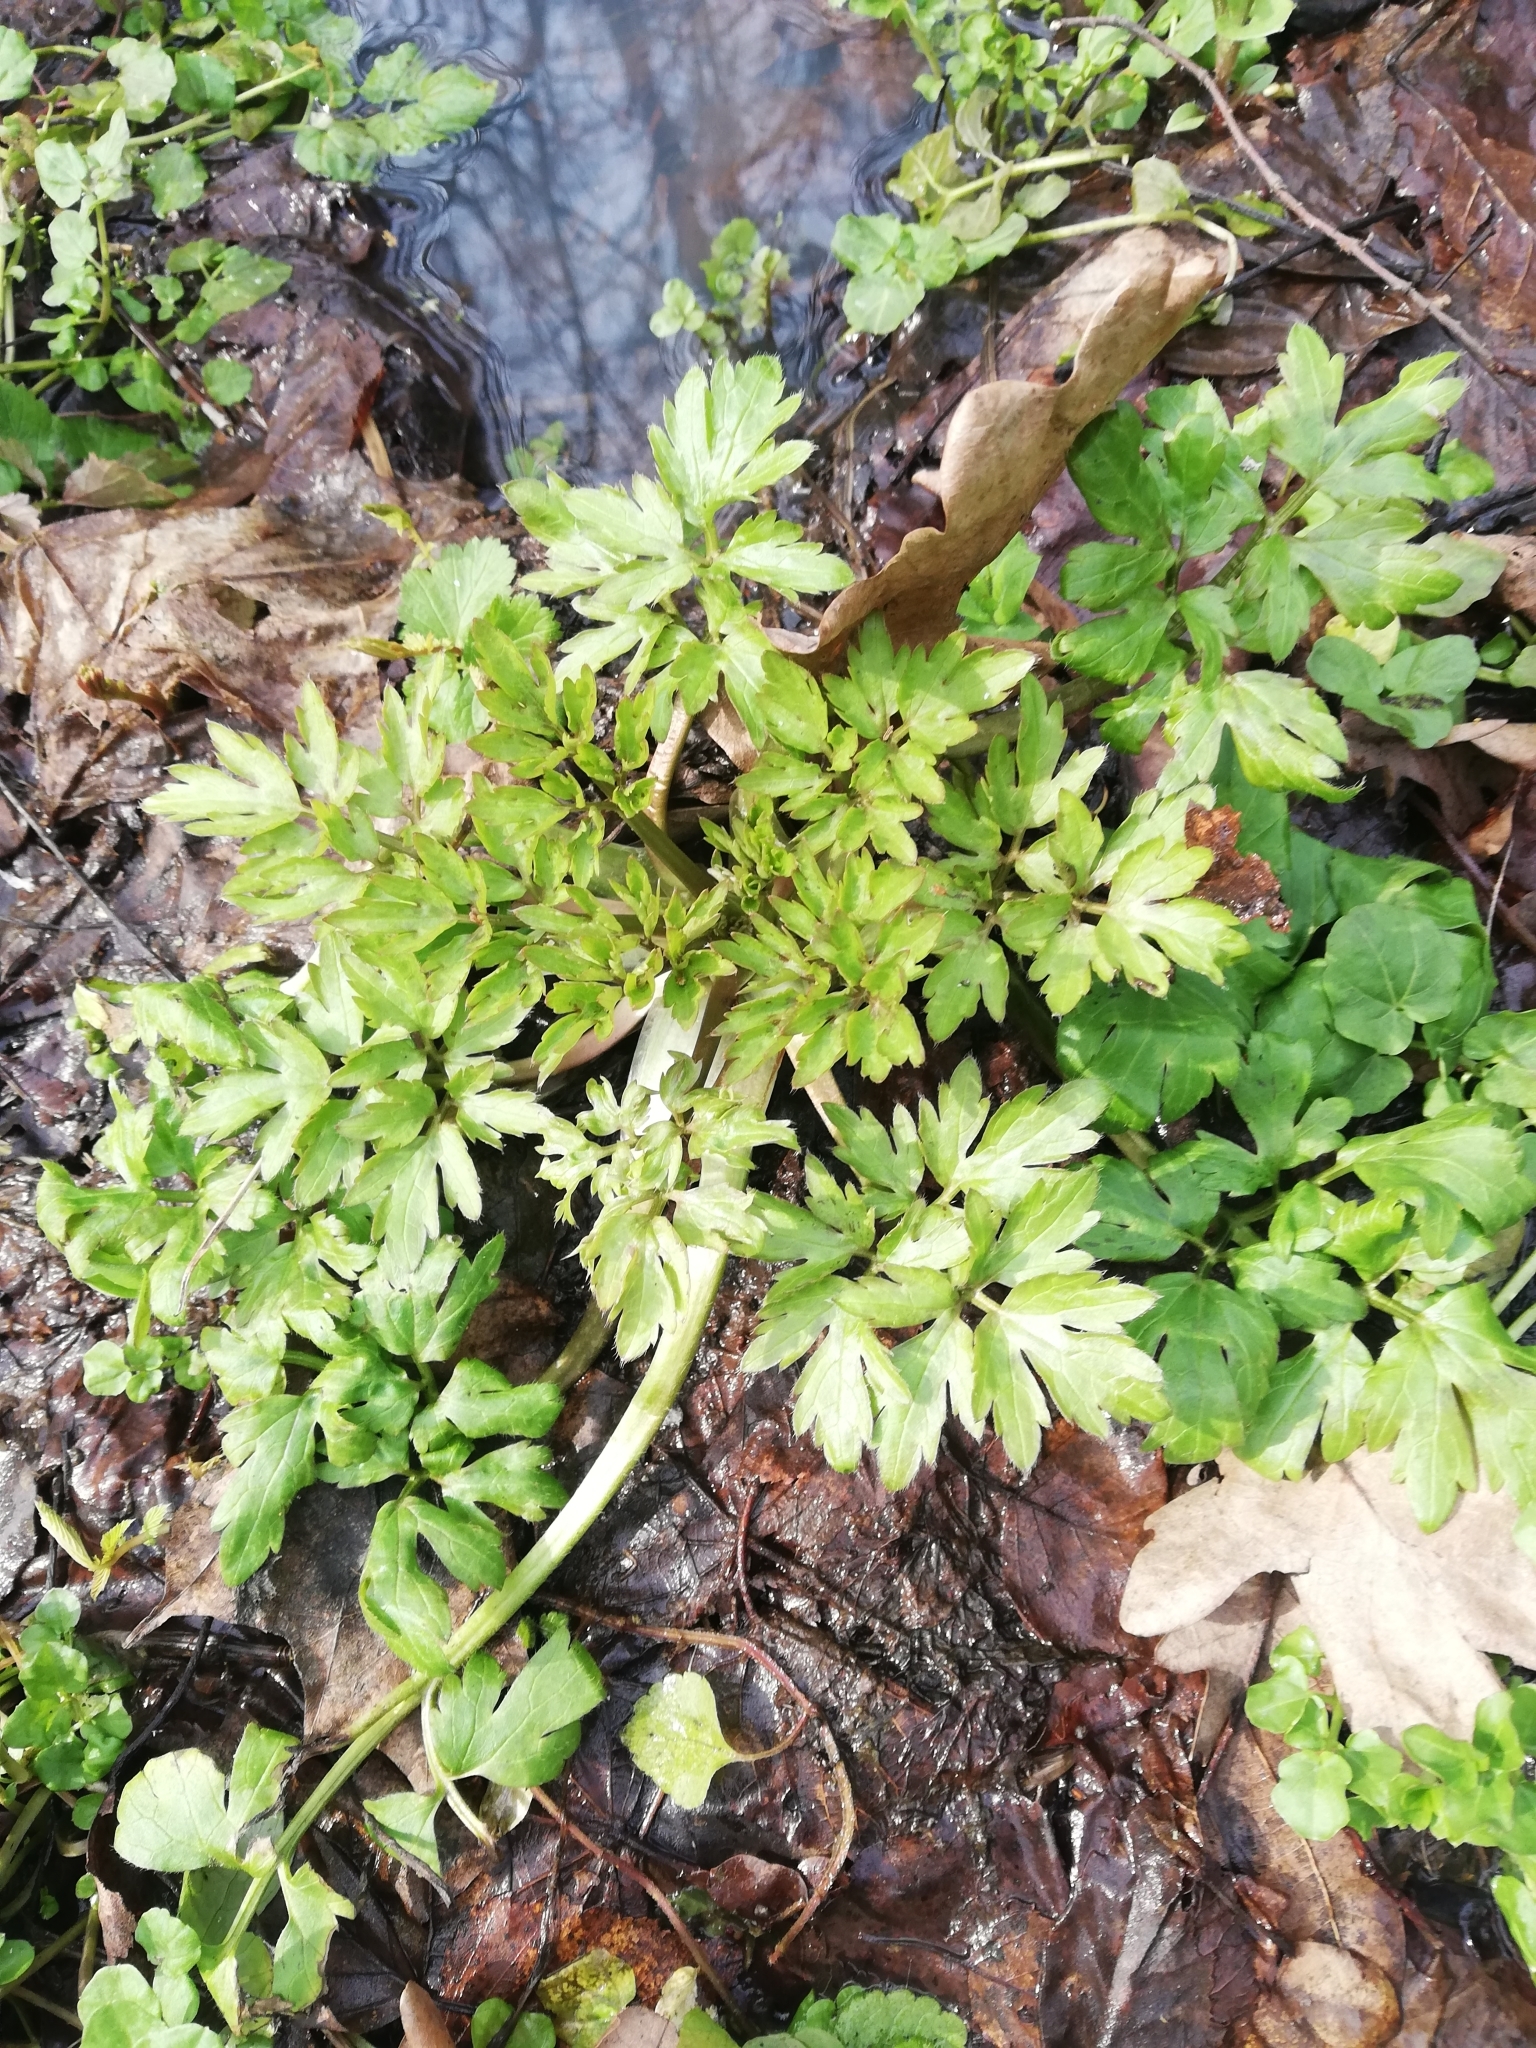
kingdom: Plantae
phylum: Tracheophyta
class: Magnoliopsida
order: Ranunculales
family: Ranunculaceae
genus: Ranunculus
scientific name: Ranunculus repens
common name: Creeping buttercup
